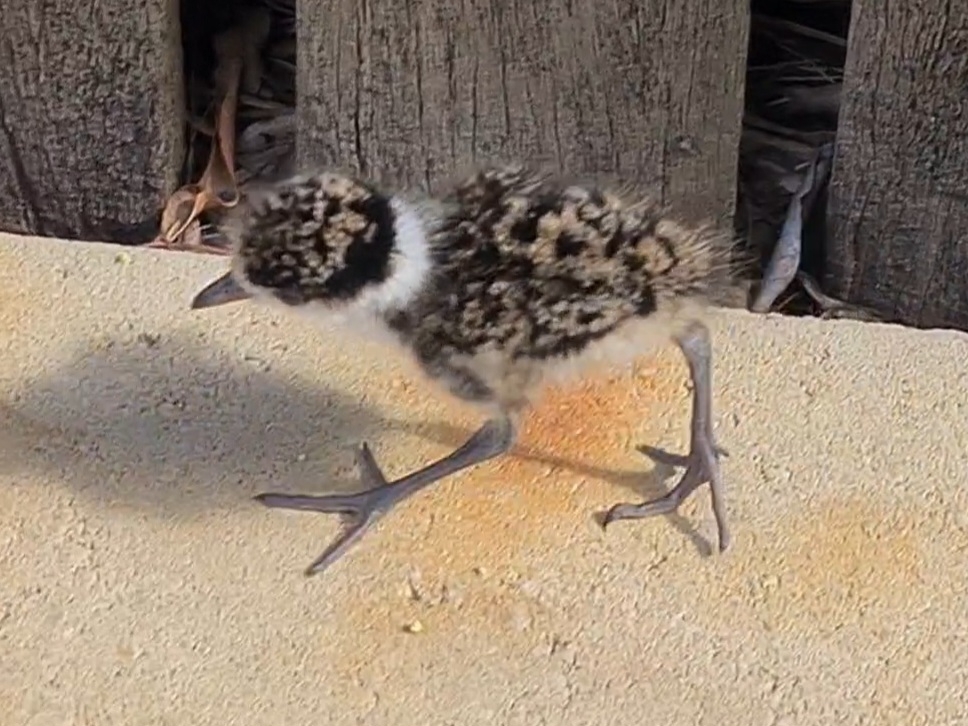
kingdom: Animalia
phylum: Chordata
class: Aves
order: Charadriiformes
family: Charadriidae
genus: Vanellus
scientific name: Vanellus miles
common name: Masked lapwing
